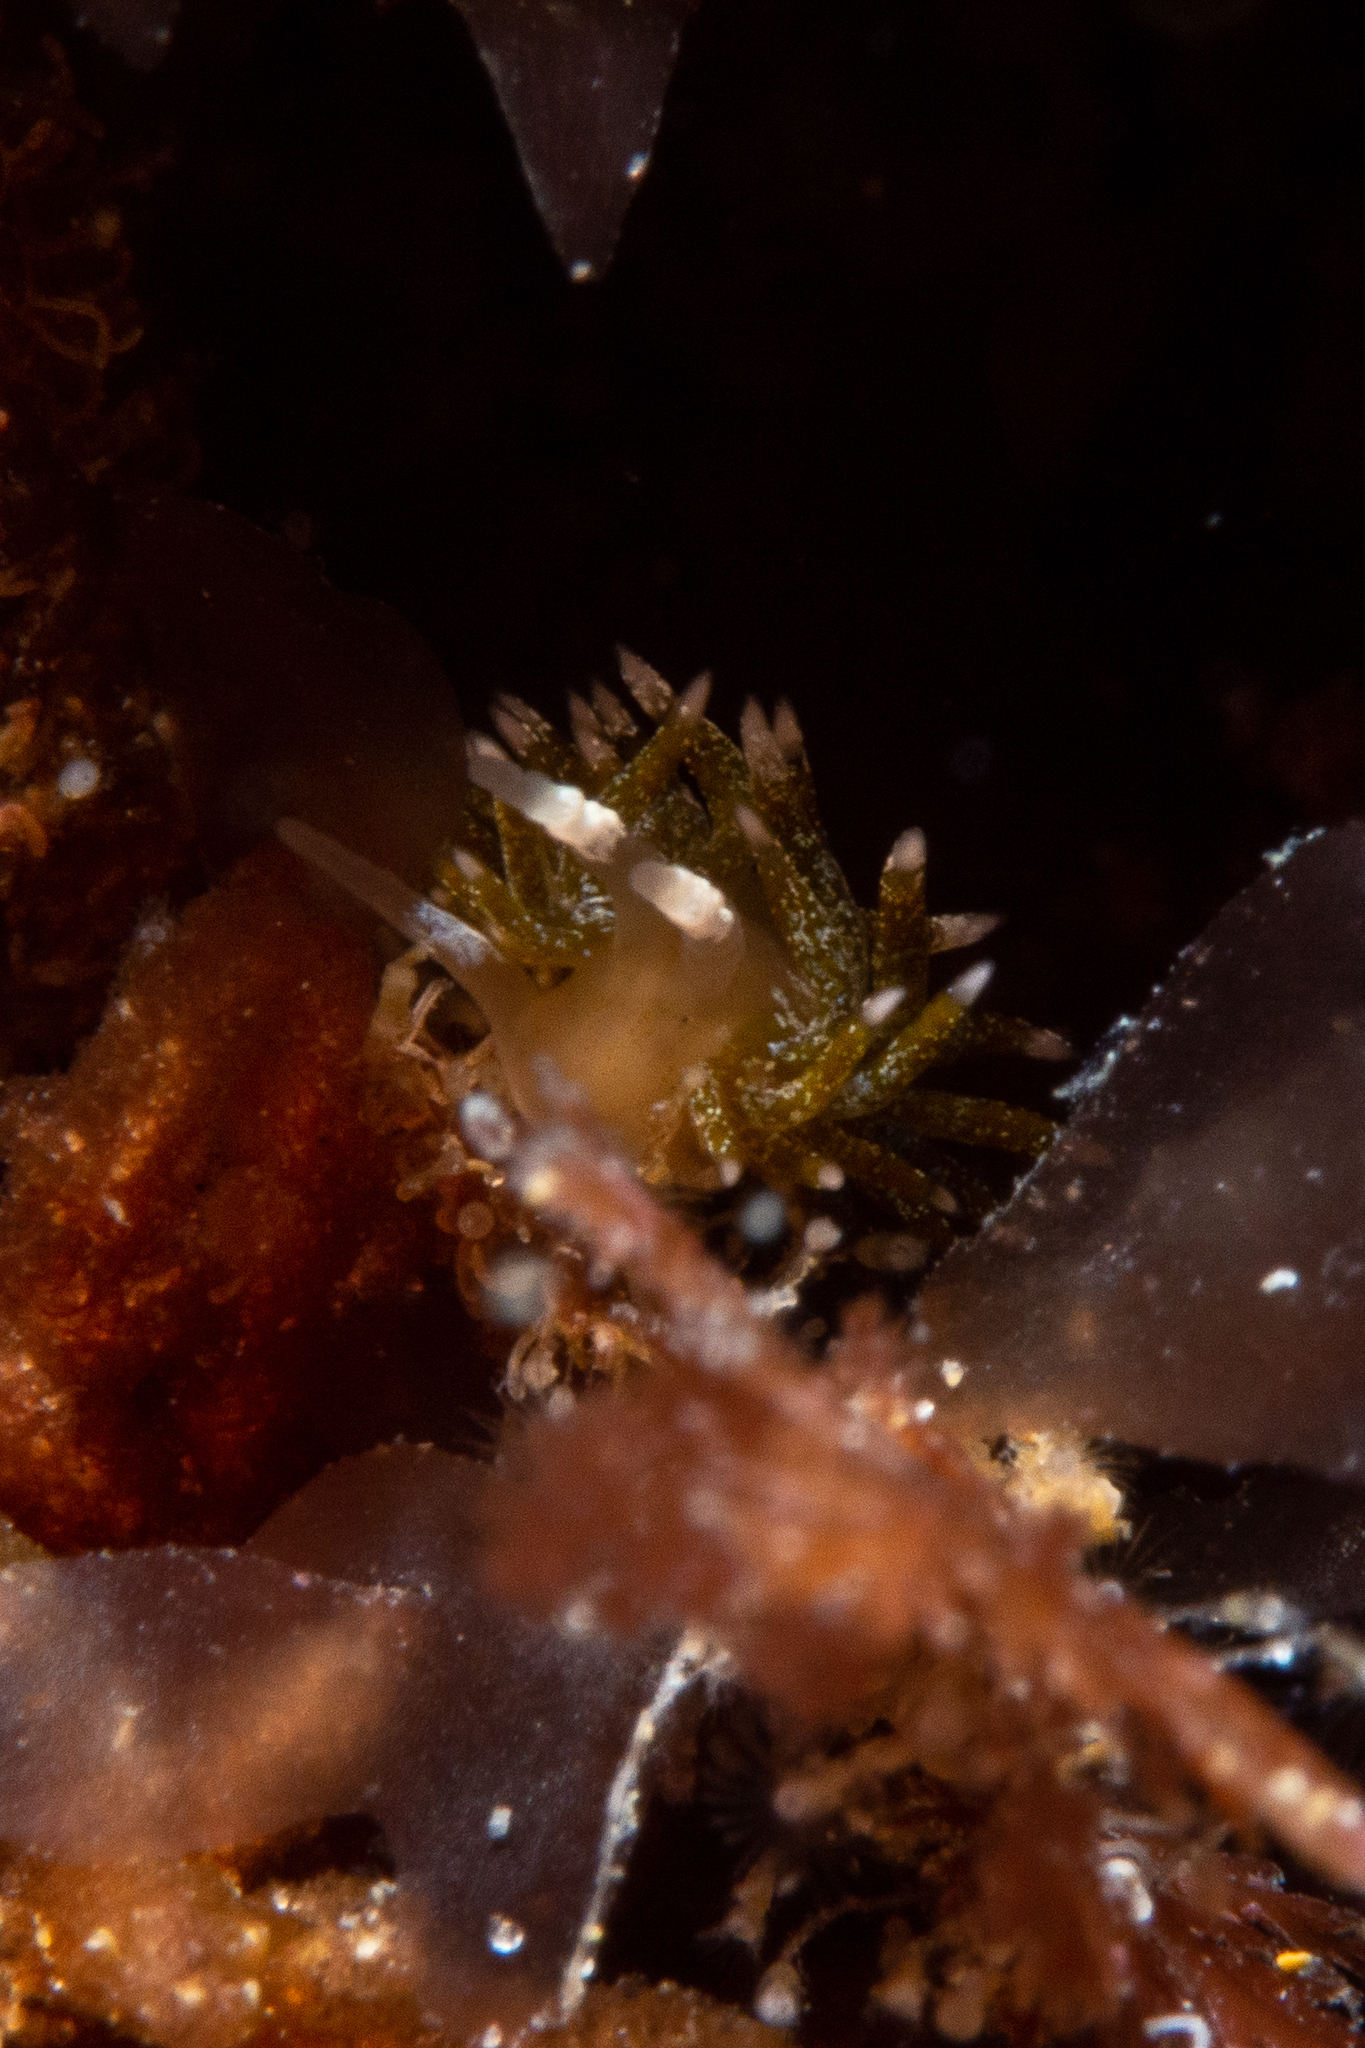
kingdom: Animalia
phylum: Mollusca
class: Gastropoda
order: Nudibranchia
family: Apataidae
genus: Tularia
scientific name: Tularia bractea
